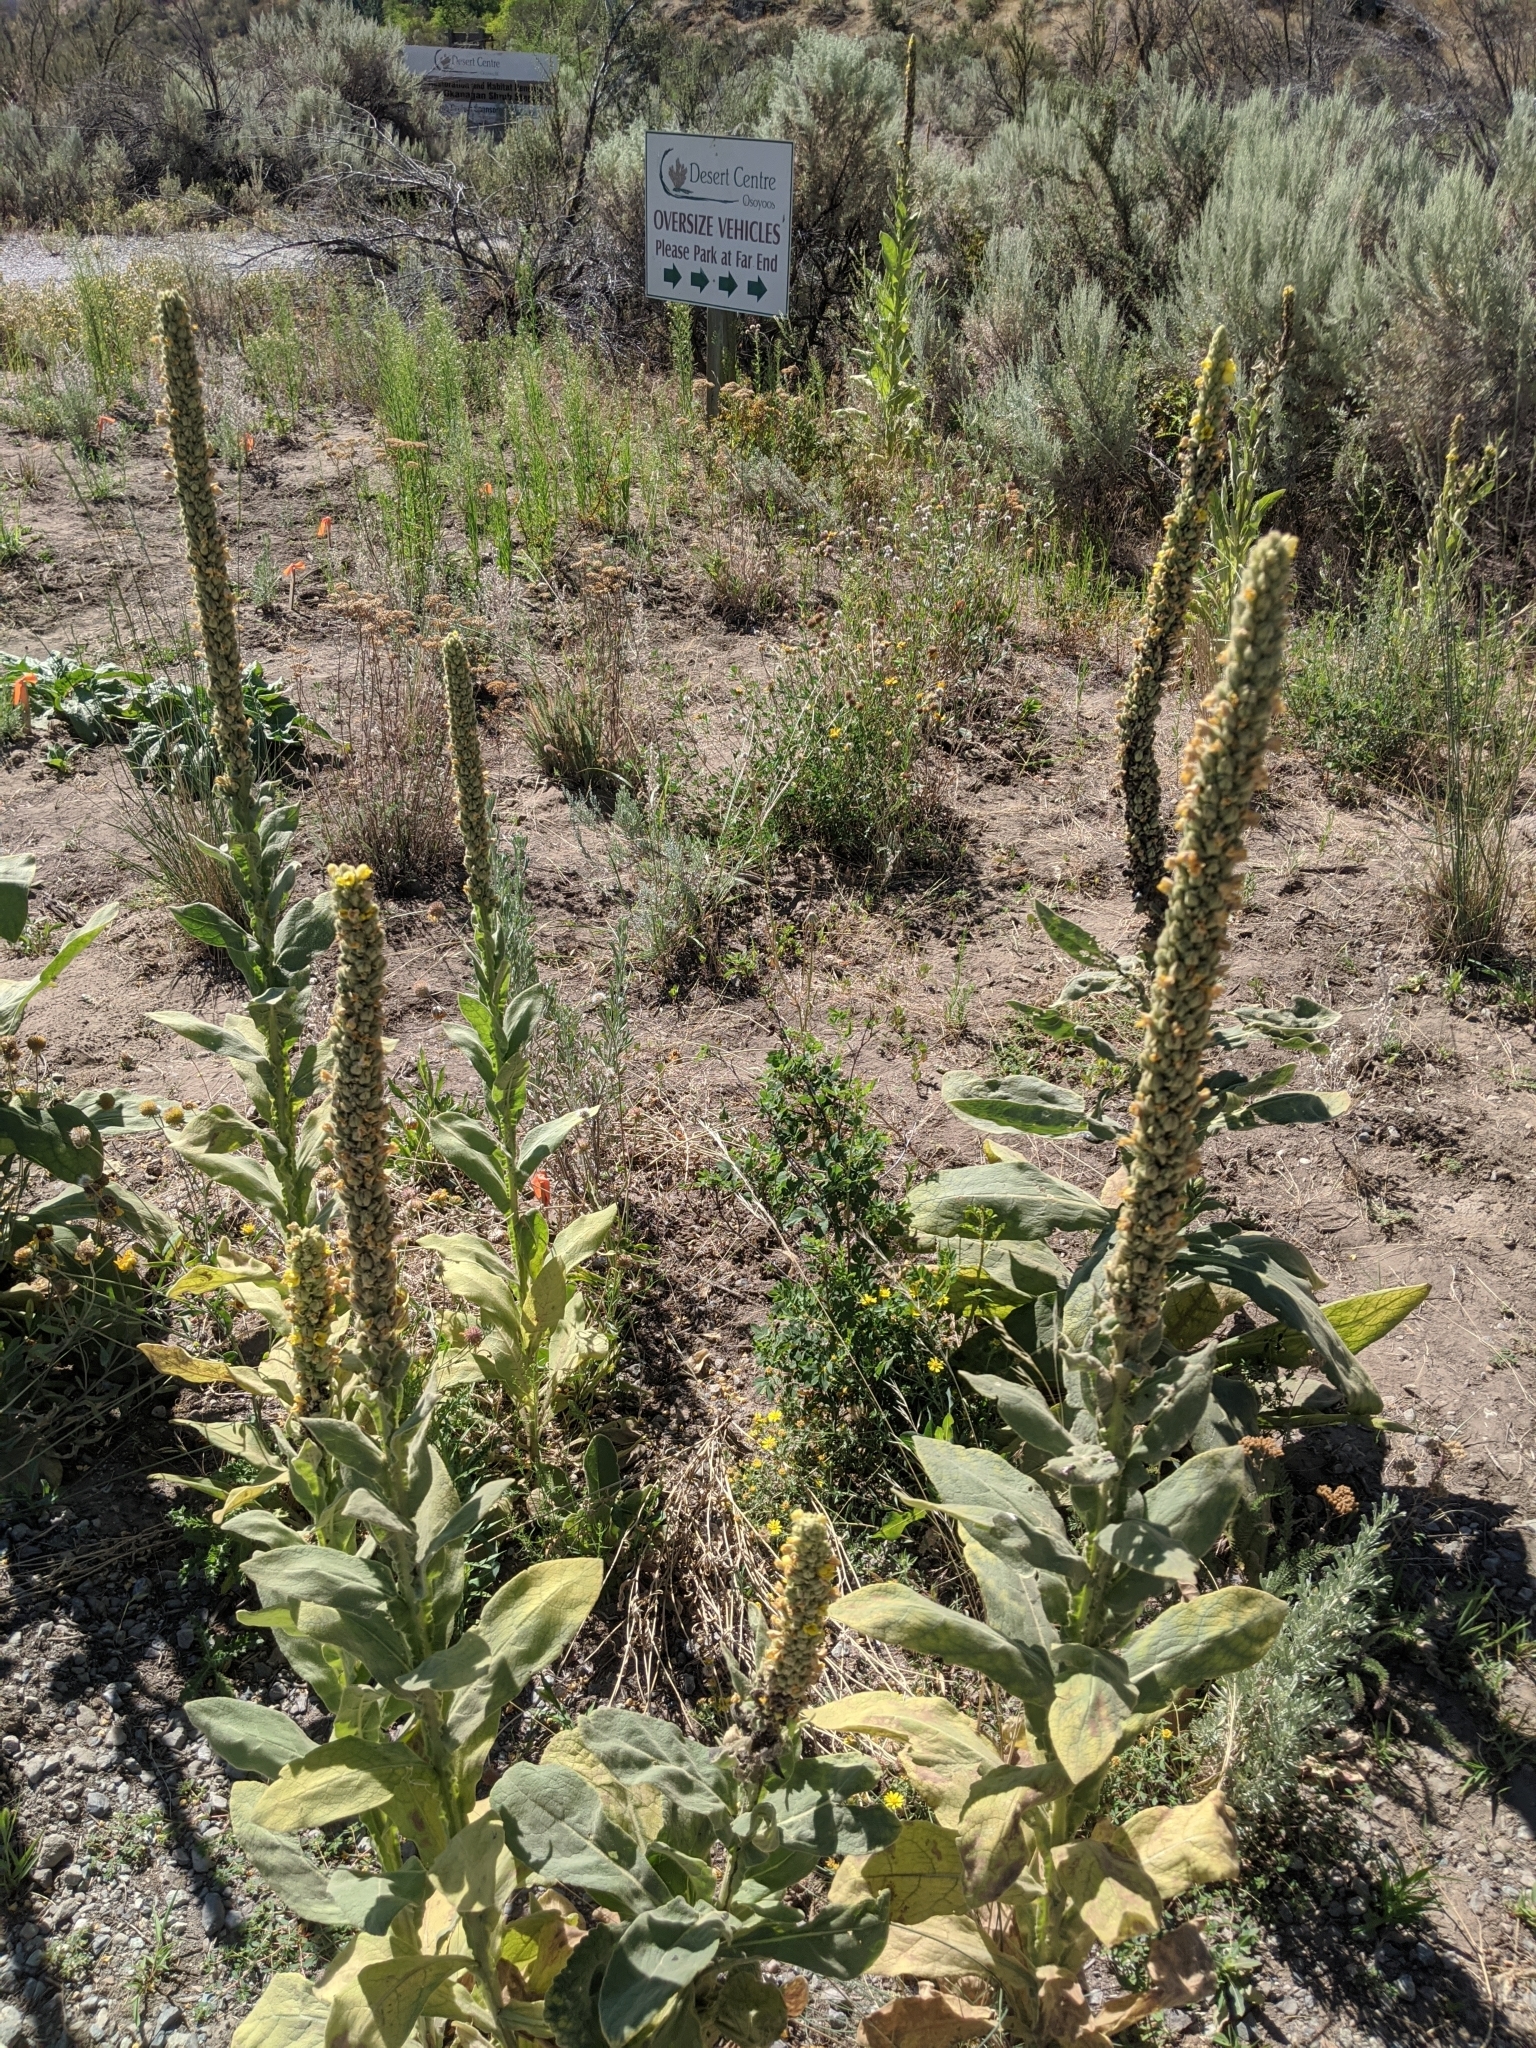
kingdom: Plantae
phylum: Tracheophyta
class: Magnoliopsida
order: Lamiales
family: Scrophulariaceae
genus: Verbascum
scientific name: Verbascum thapsus
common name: Common mullein
